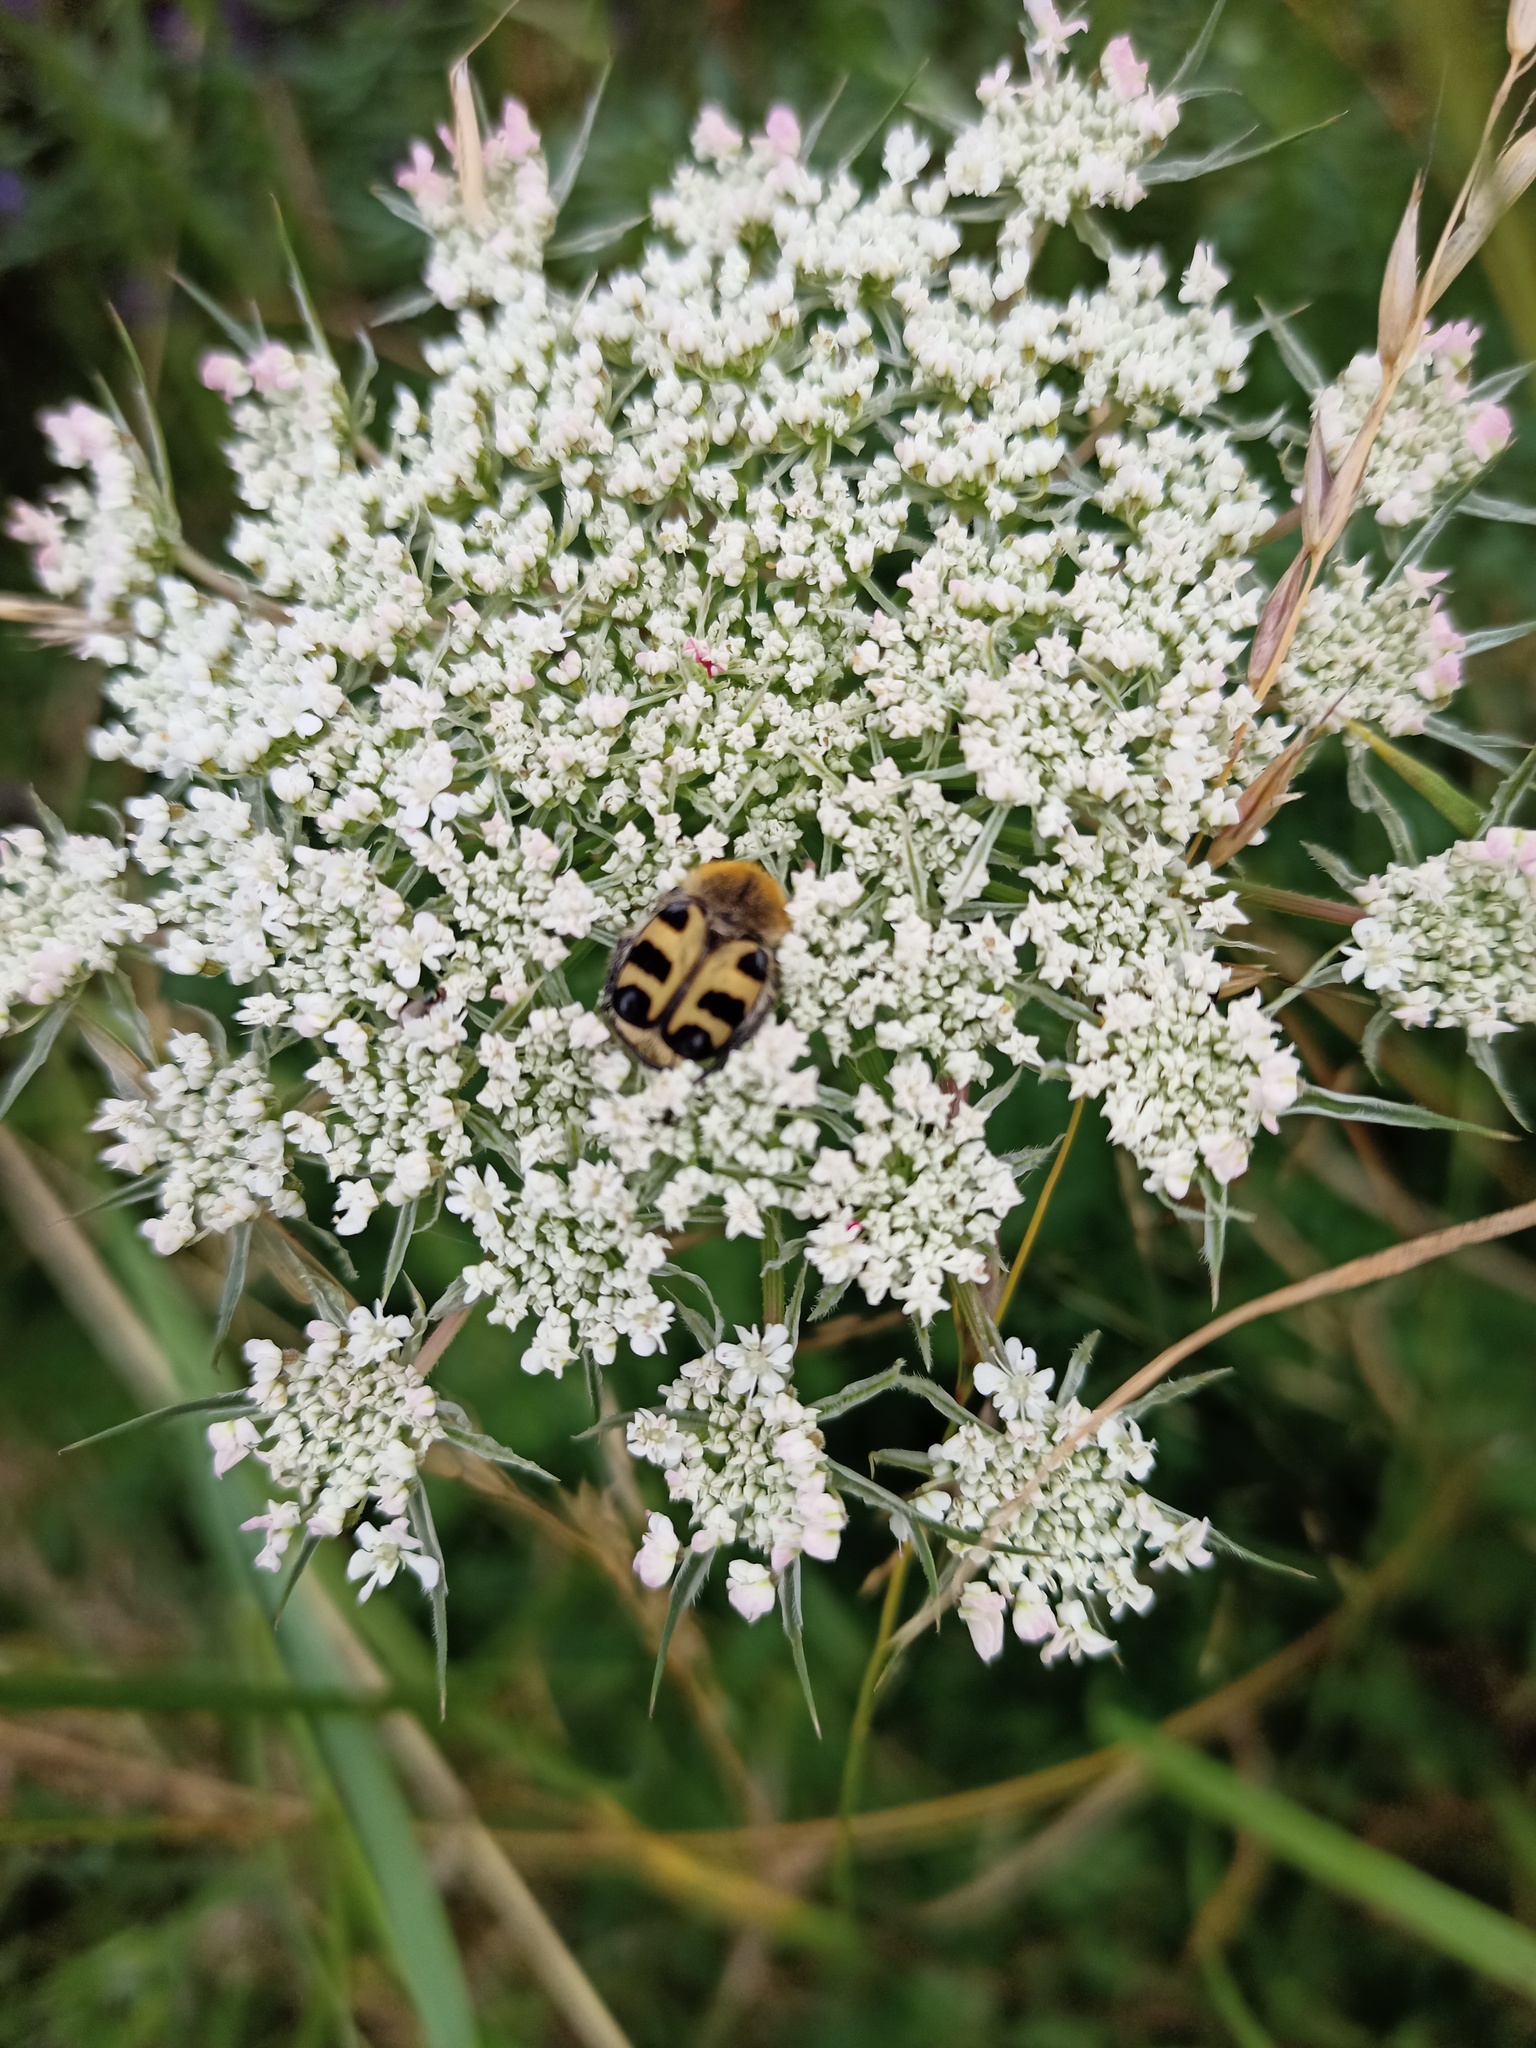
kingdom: Animalia
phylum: Arthropoda
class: Insecta
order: Coleoptera
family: Scarabaeidae
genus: Trichius
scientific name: Trichius gallicus
